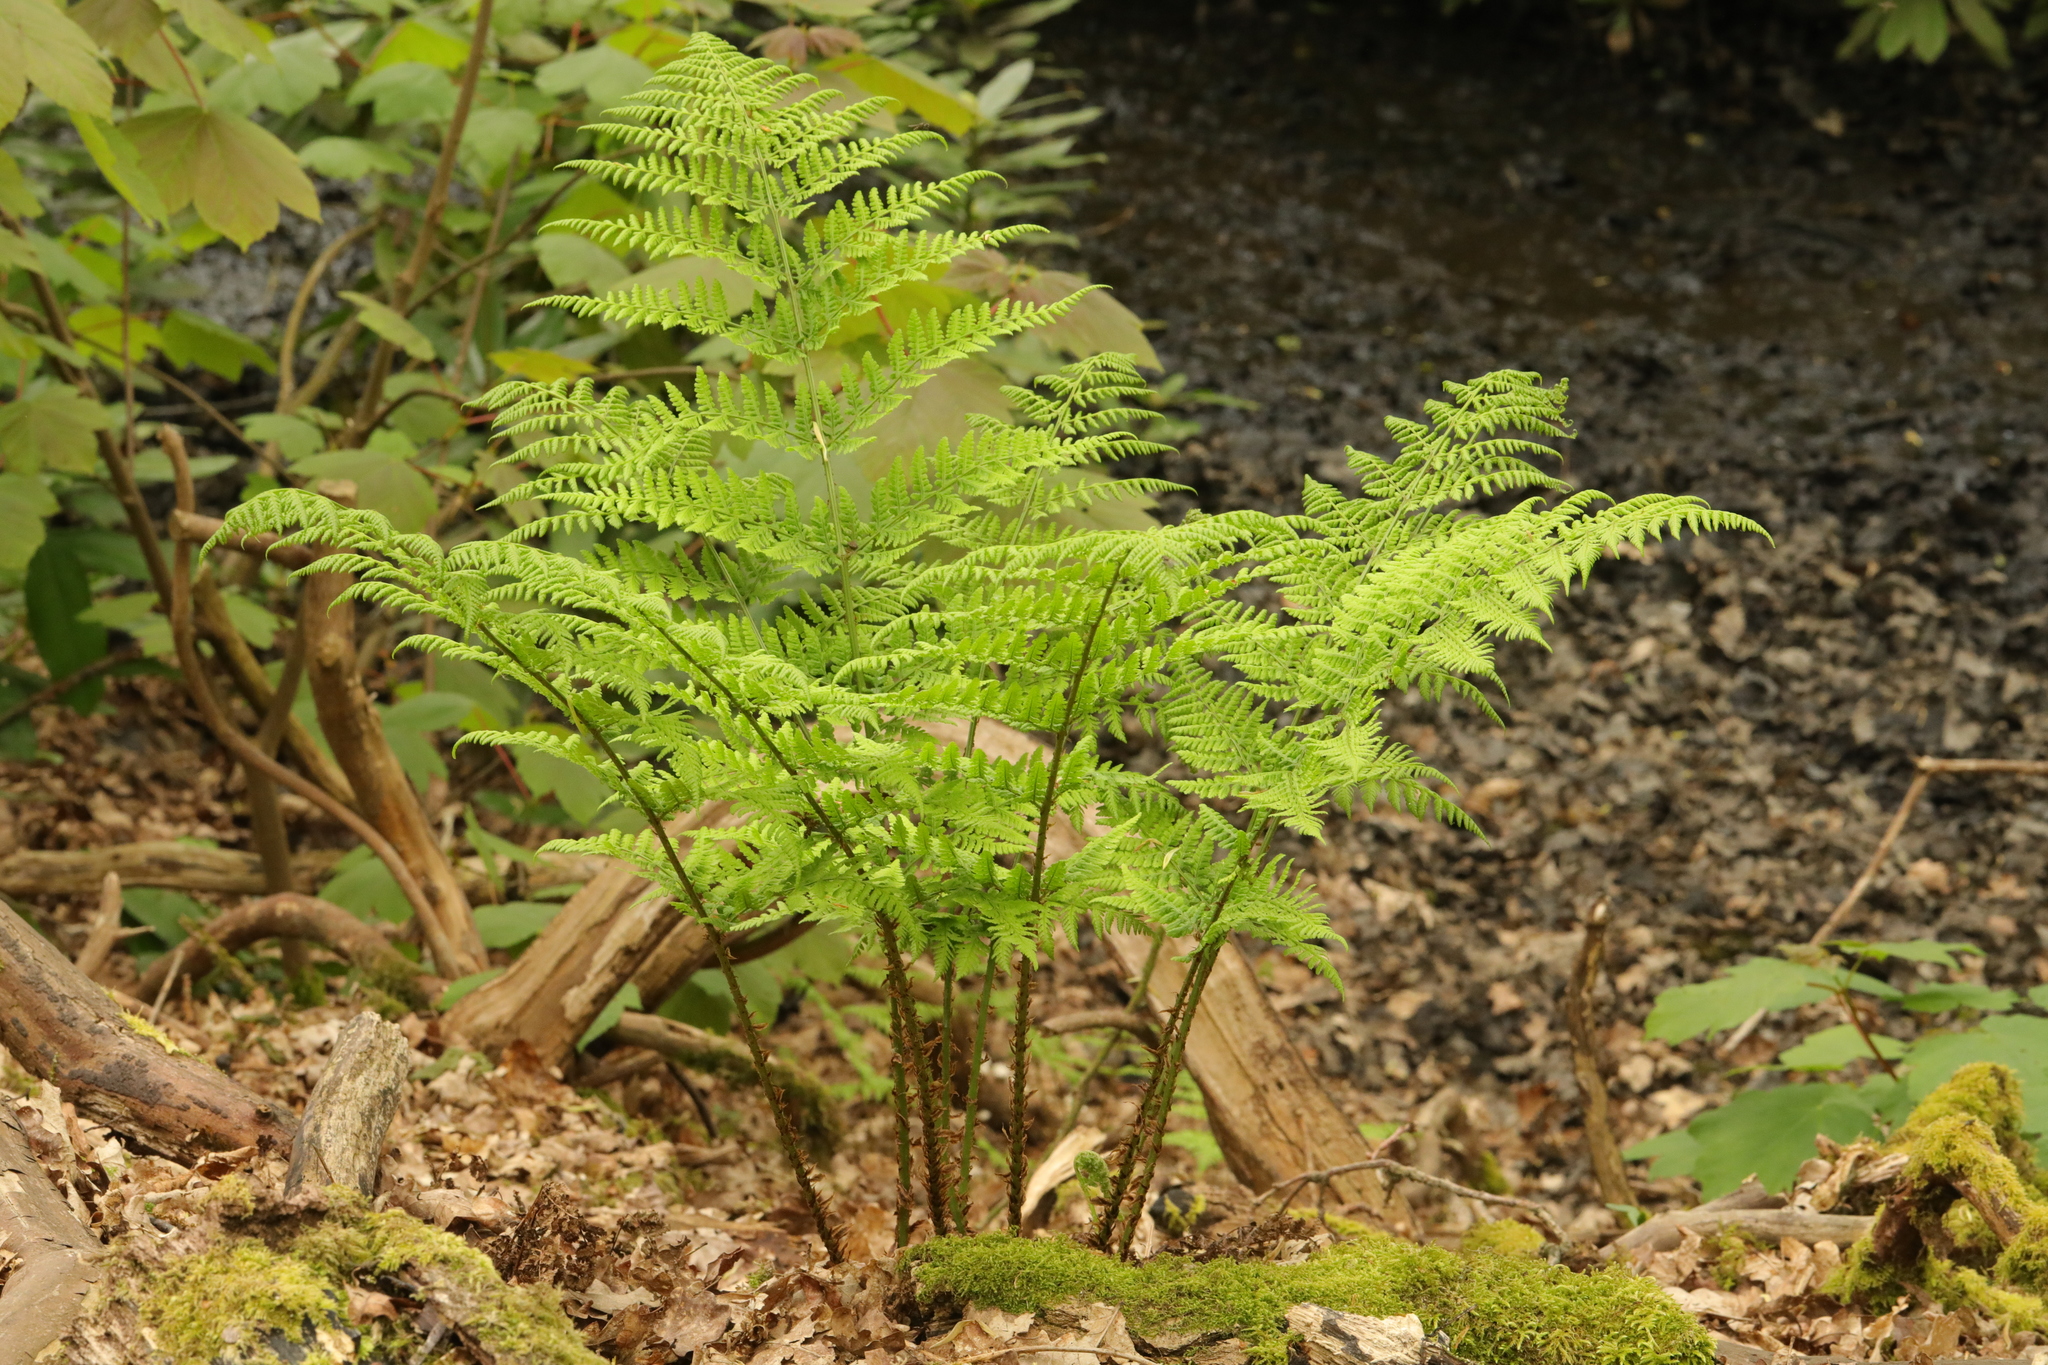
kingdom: Plantae
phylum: Tracheophyta
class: Polypodiopsida
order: Polypodiales
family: Dryopteridaceae
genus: Dryopteris
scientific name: Dryopteris dilatata
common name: Broad buckler-fern
